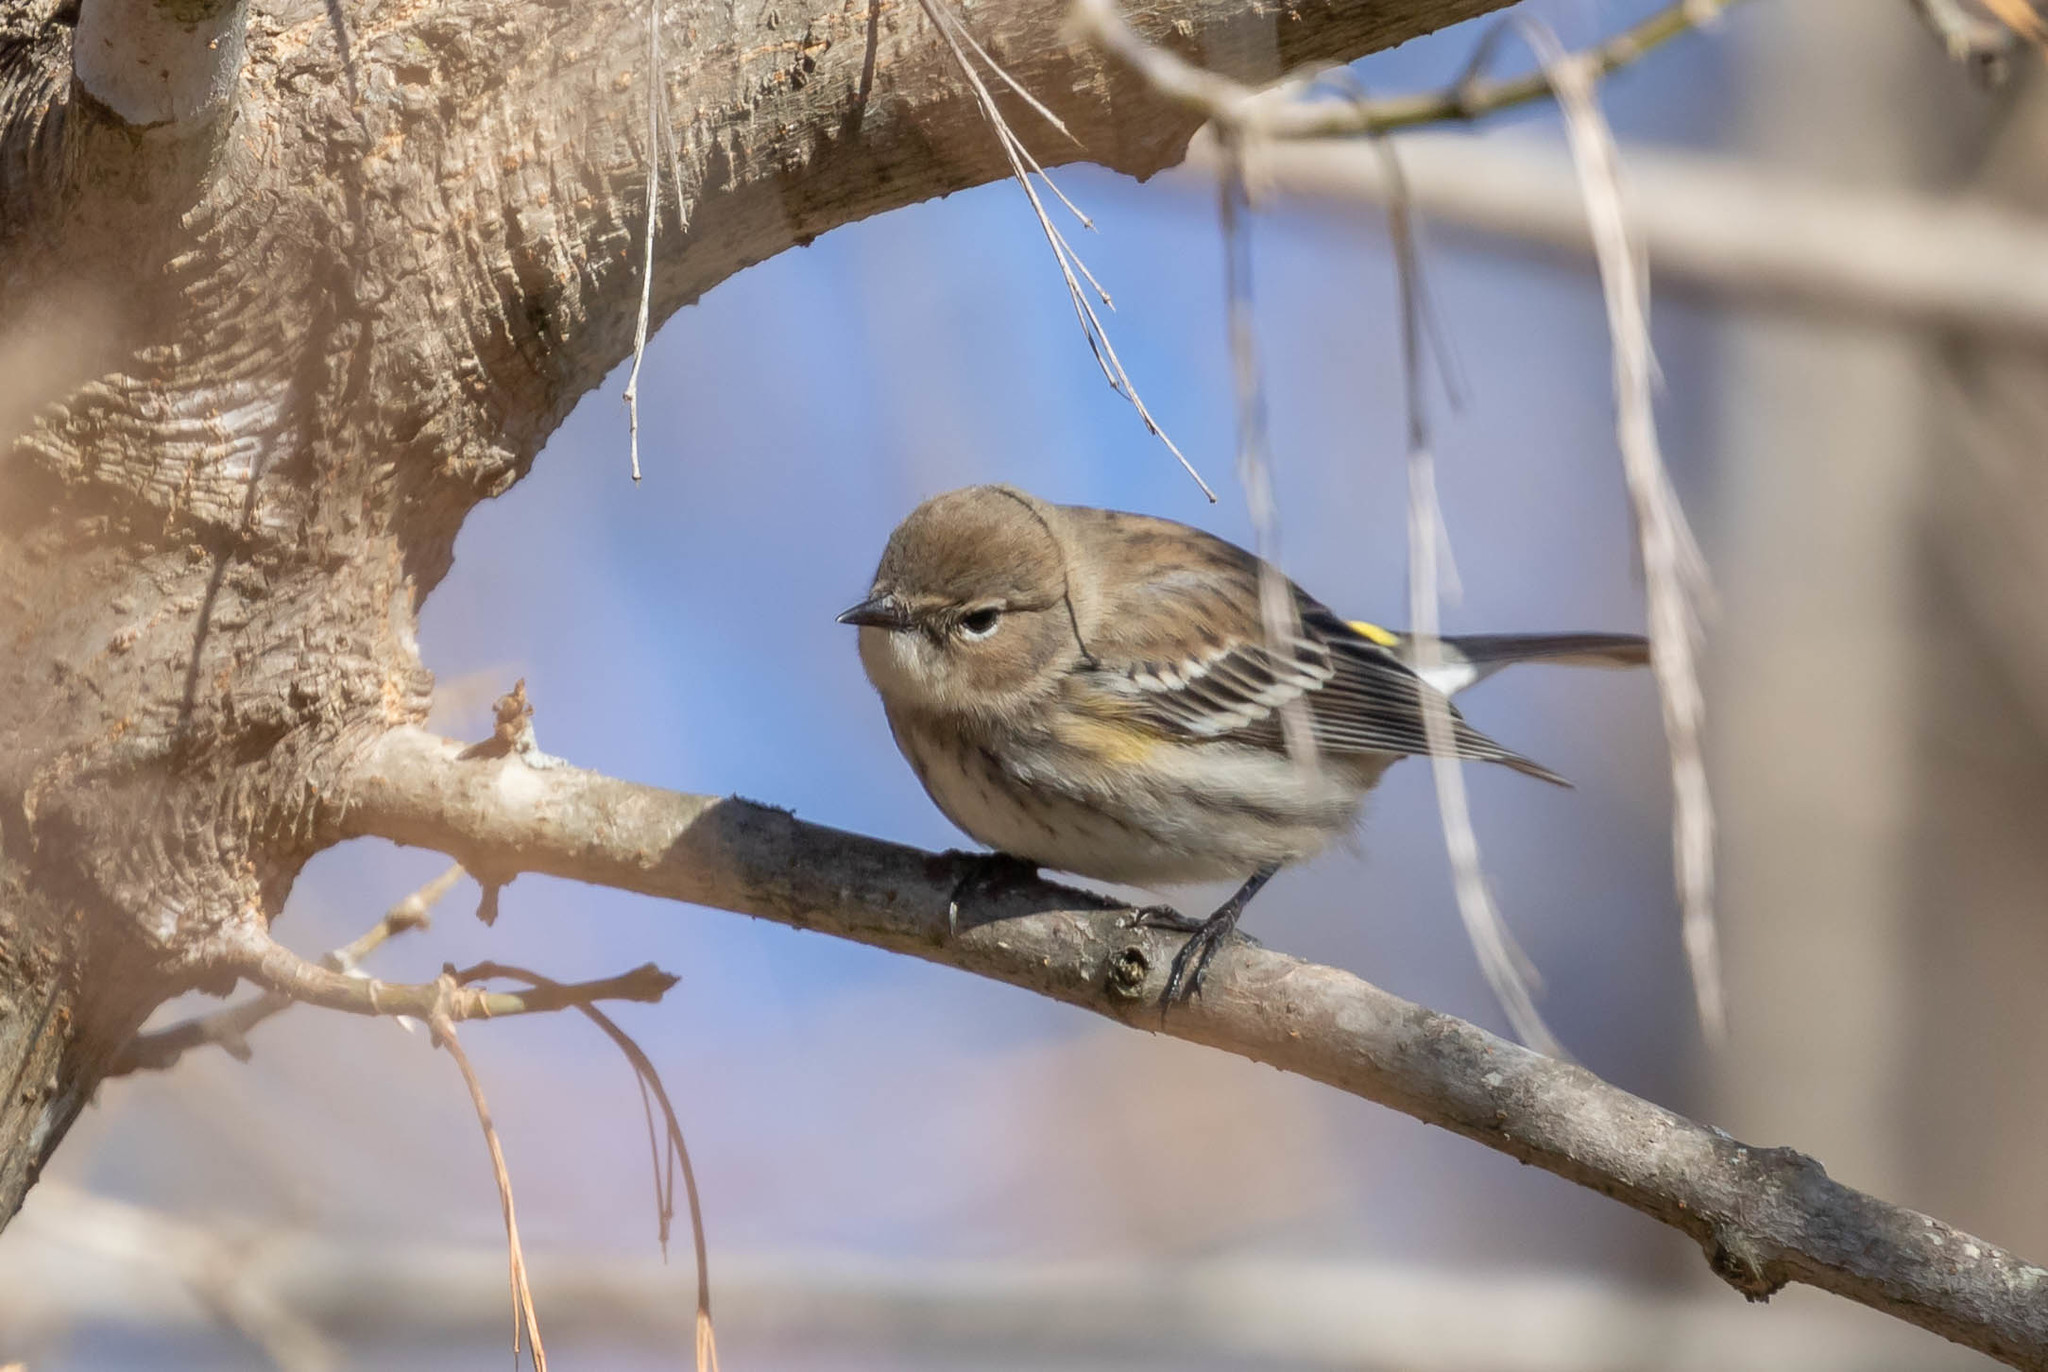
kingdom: Animalia
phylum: Chordata
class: Aves
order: Passeriformes
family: Parulidae
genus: Setophaga
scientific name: Setophaga coronata
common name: Myrtle warbler
